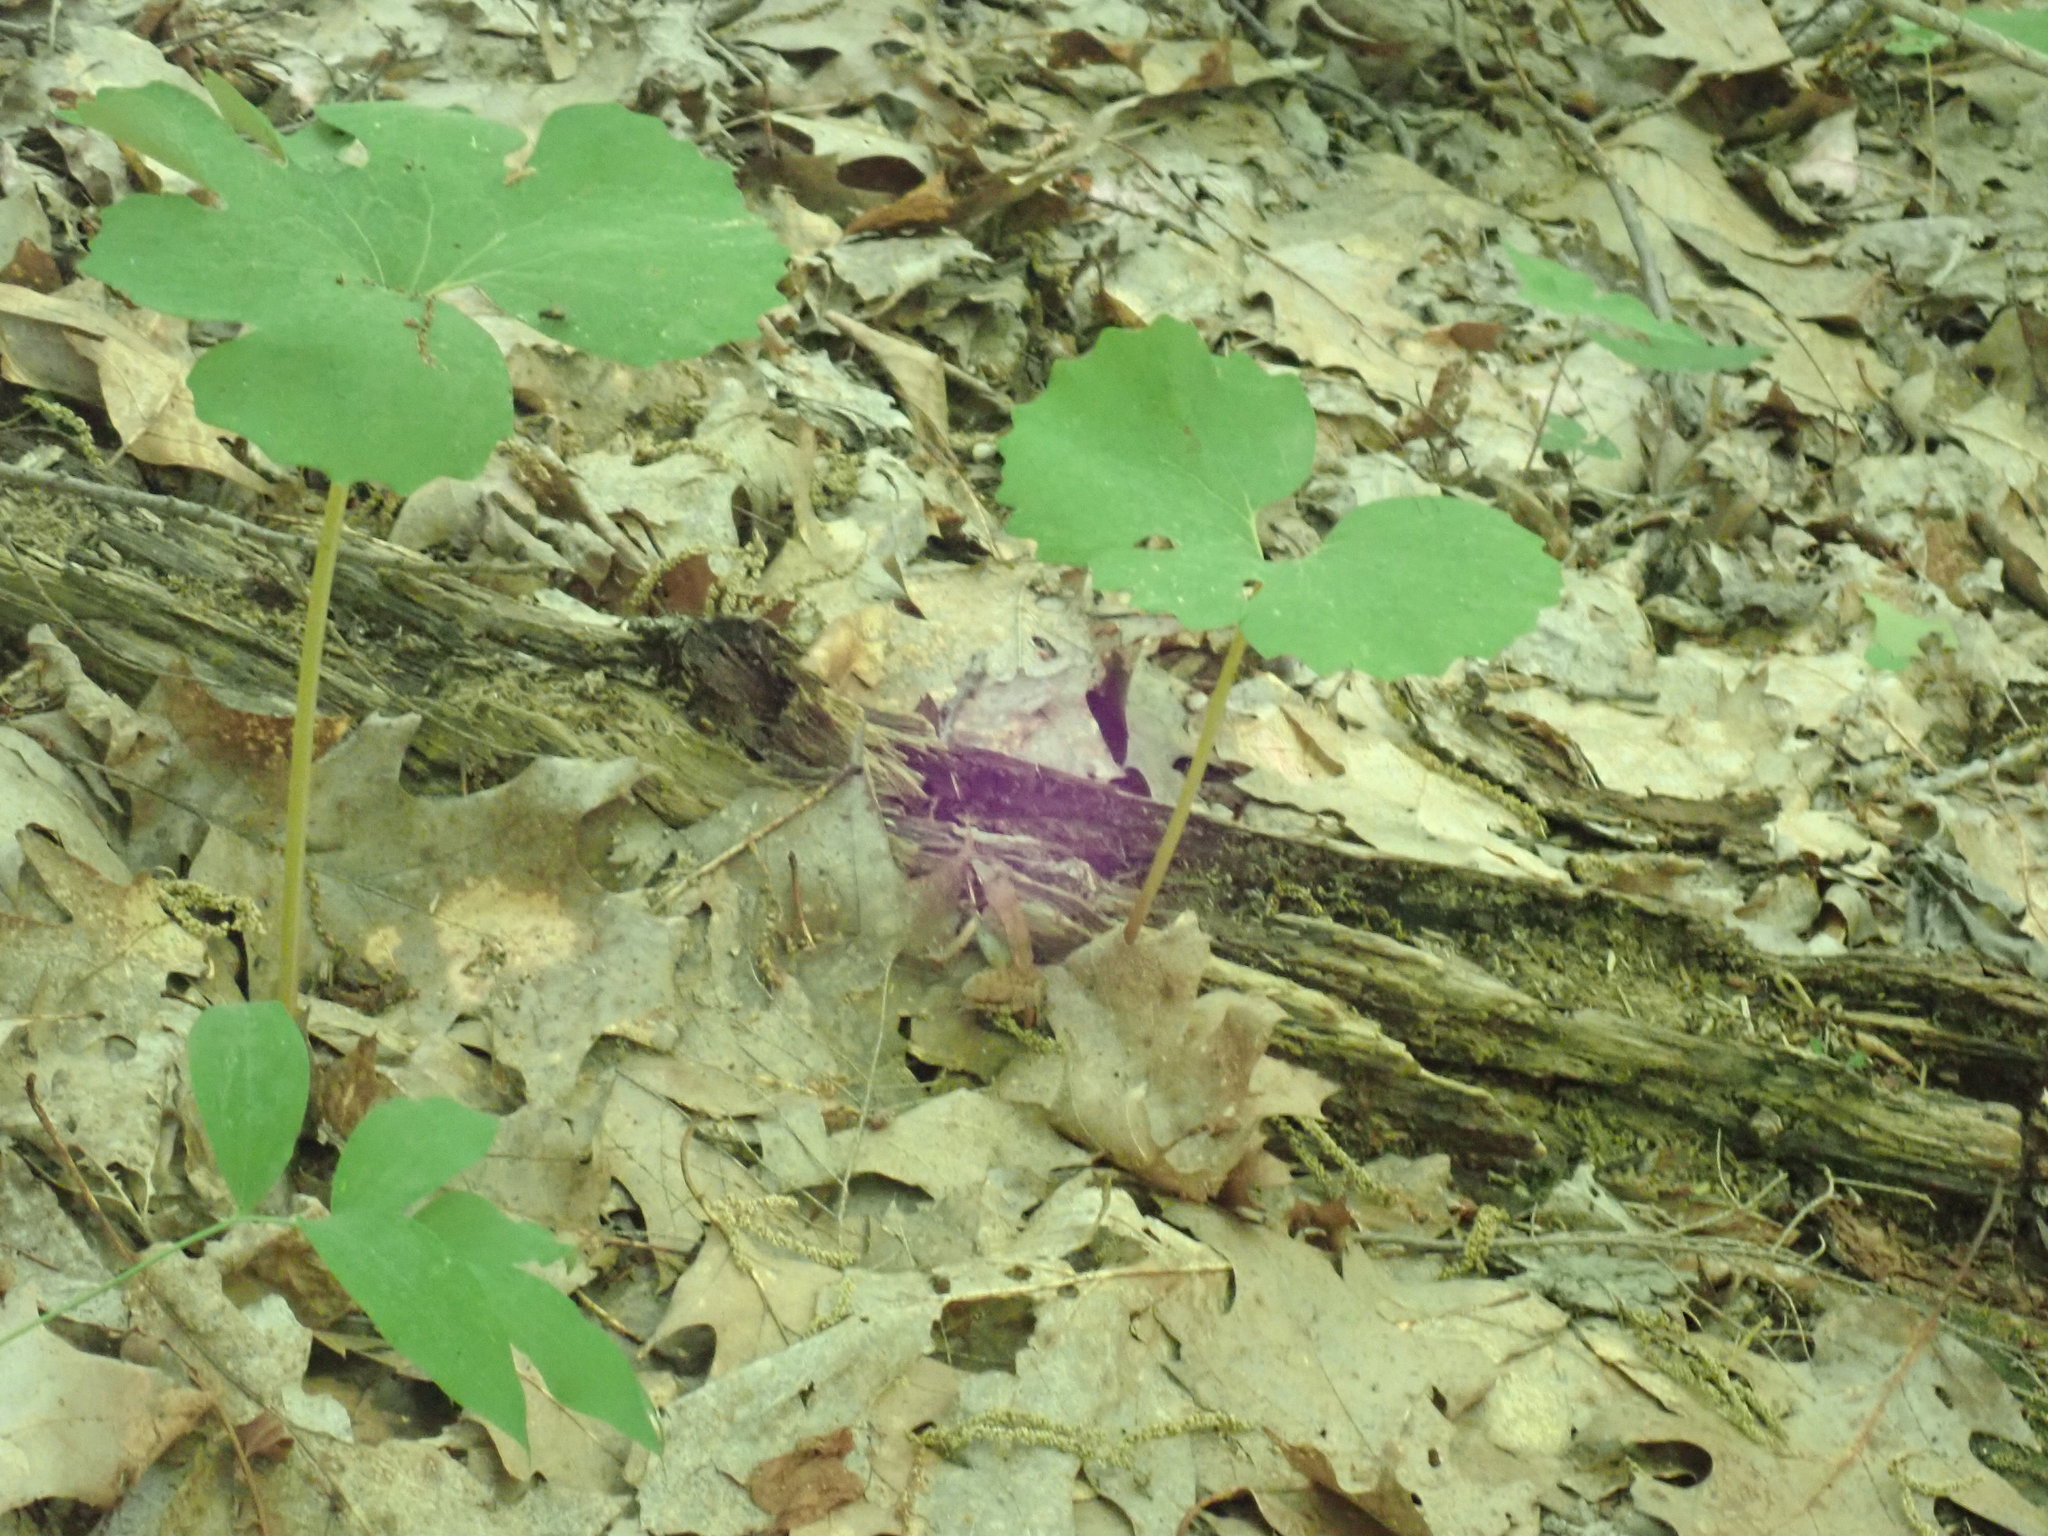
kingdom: Plantae
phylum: Tracheophyta
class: Magnoliopsida
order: Ranunculales
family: Papaveraceae
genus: Sanguinaria
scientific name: Sanguinaria canadensis
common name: Bloodroot
